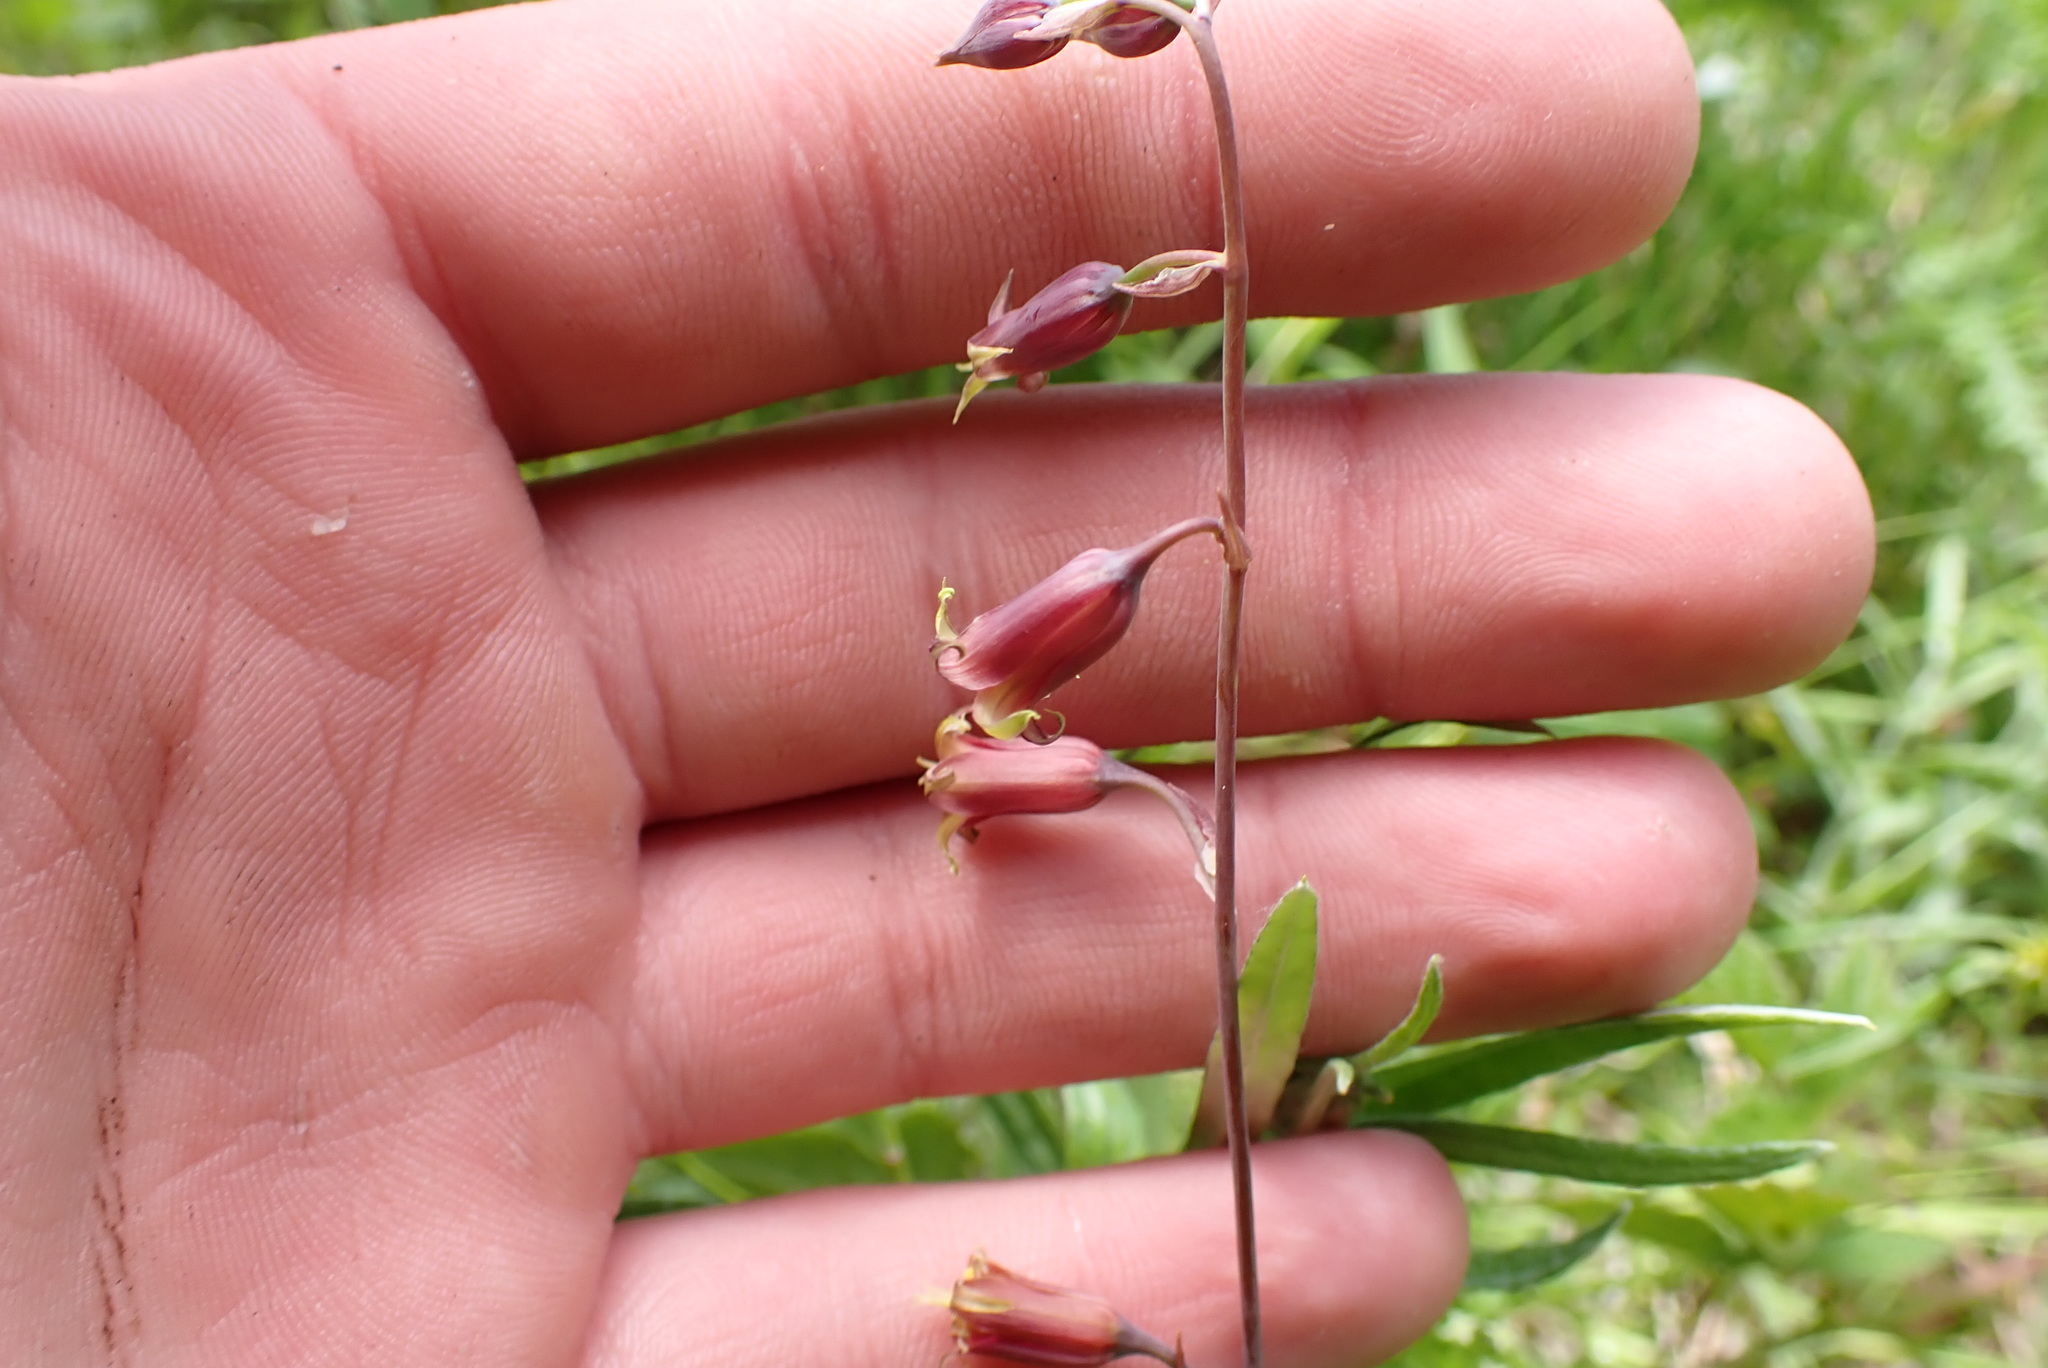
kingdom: Plantae
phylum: Tracheophyta
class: Liliopsida
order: Liliales
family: Melanthiaceae
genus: Anticlea
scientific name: Anticlea occidentalis
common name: Bronze-bells
